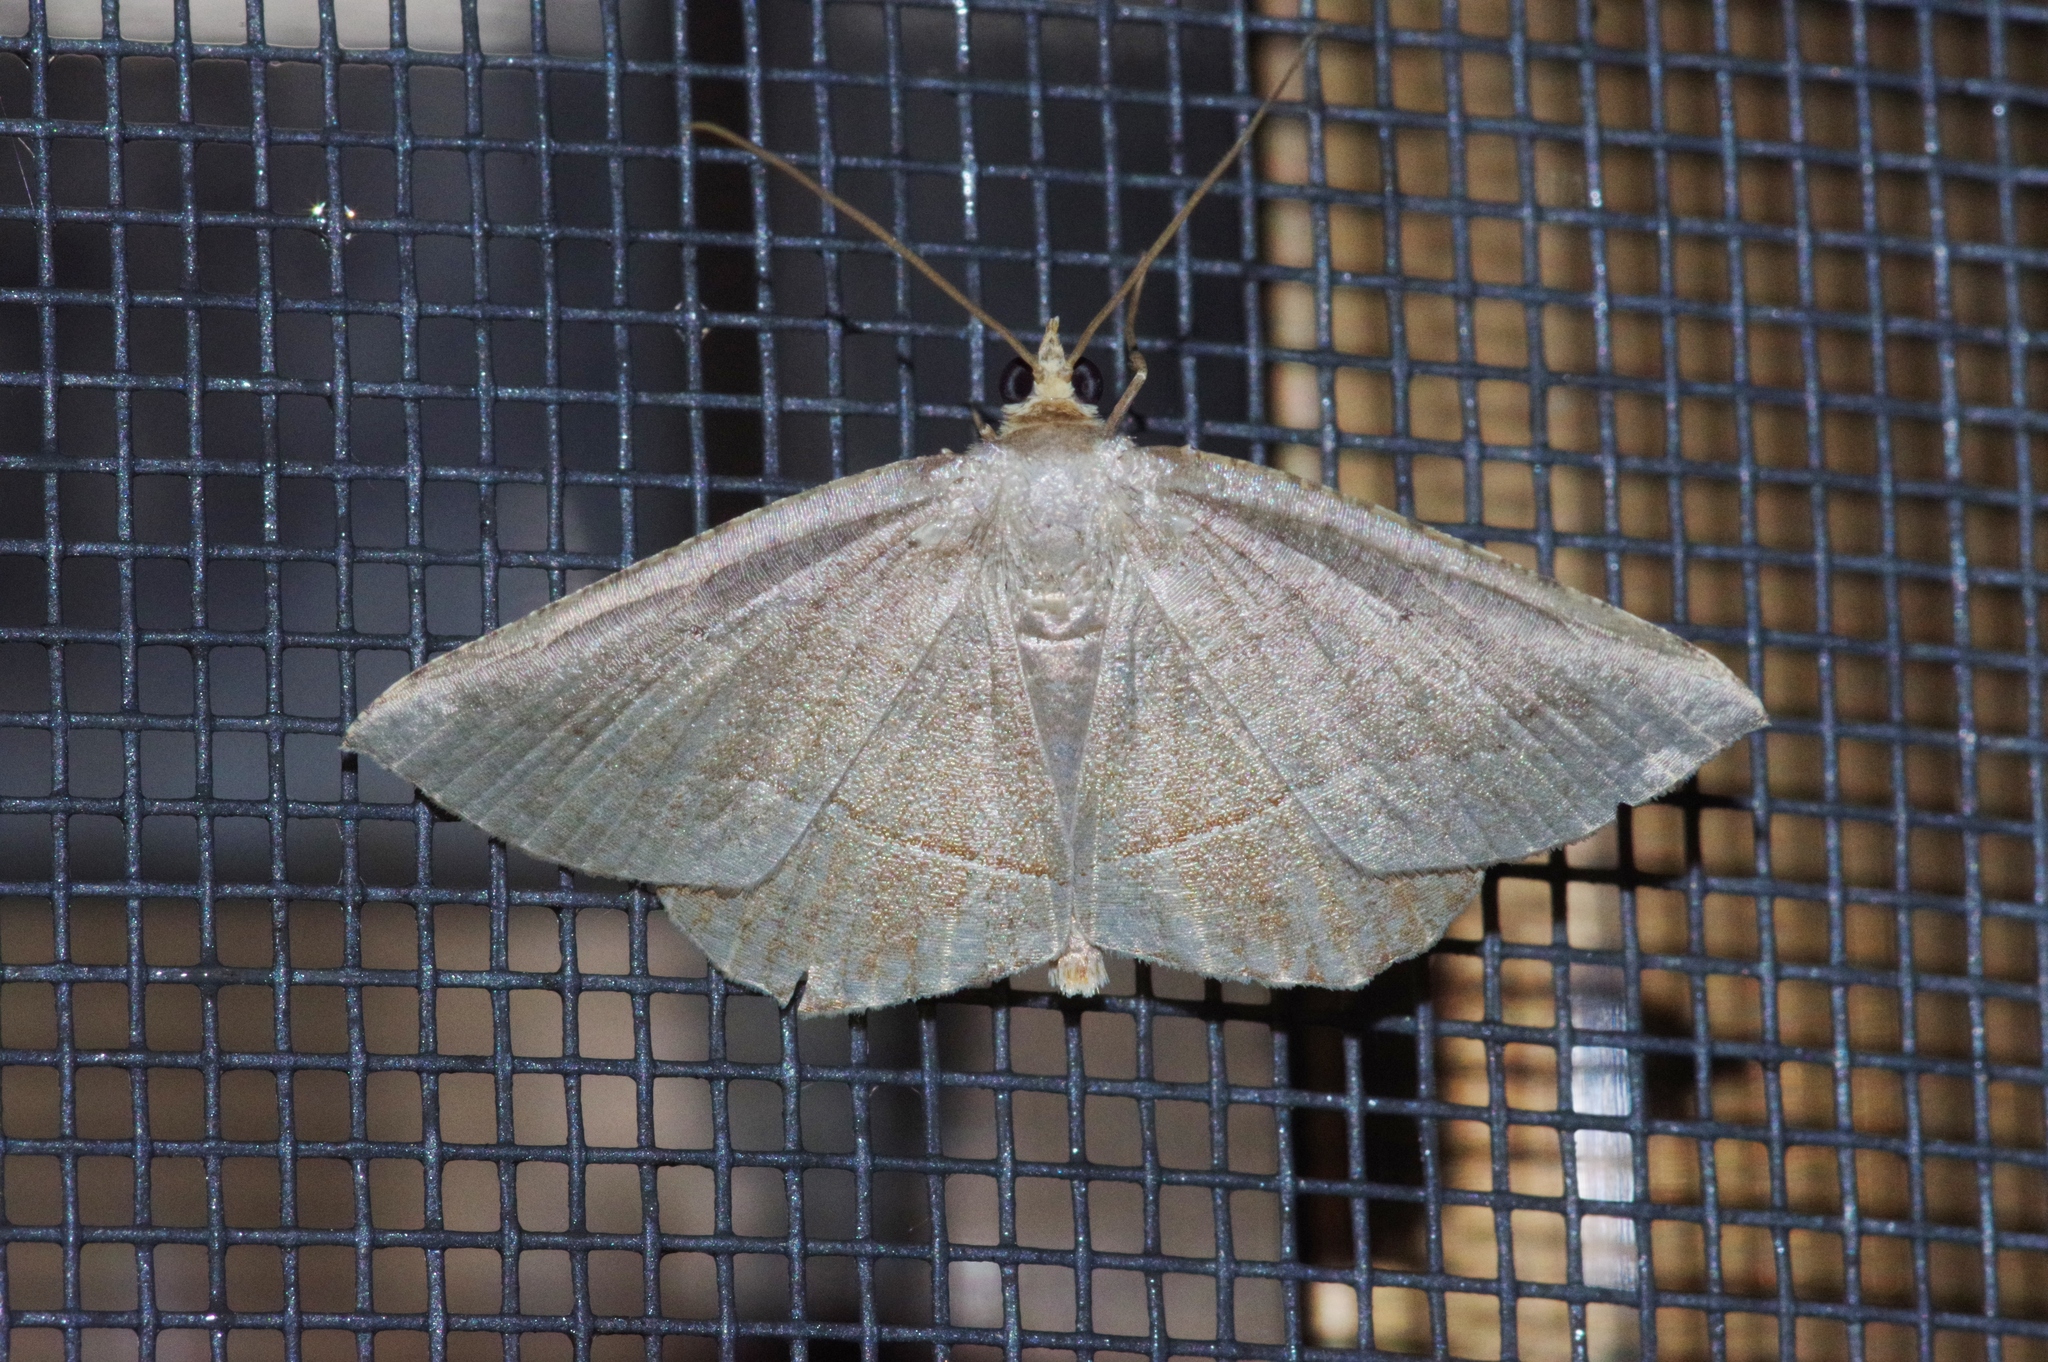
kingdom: Animalia
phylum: Arthropoda
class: Insecta
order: Lepidoptera
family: Geometridae
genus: Plesiomorpha
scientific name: Plesiomorpha flaviceps
